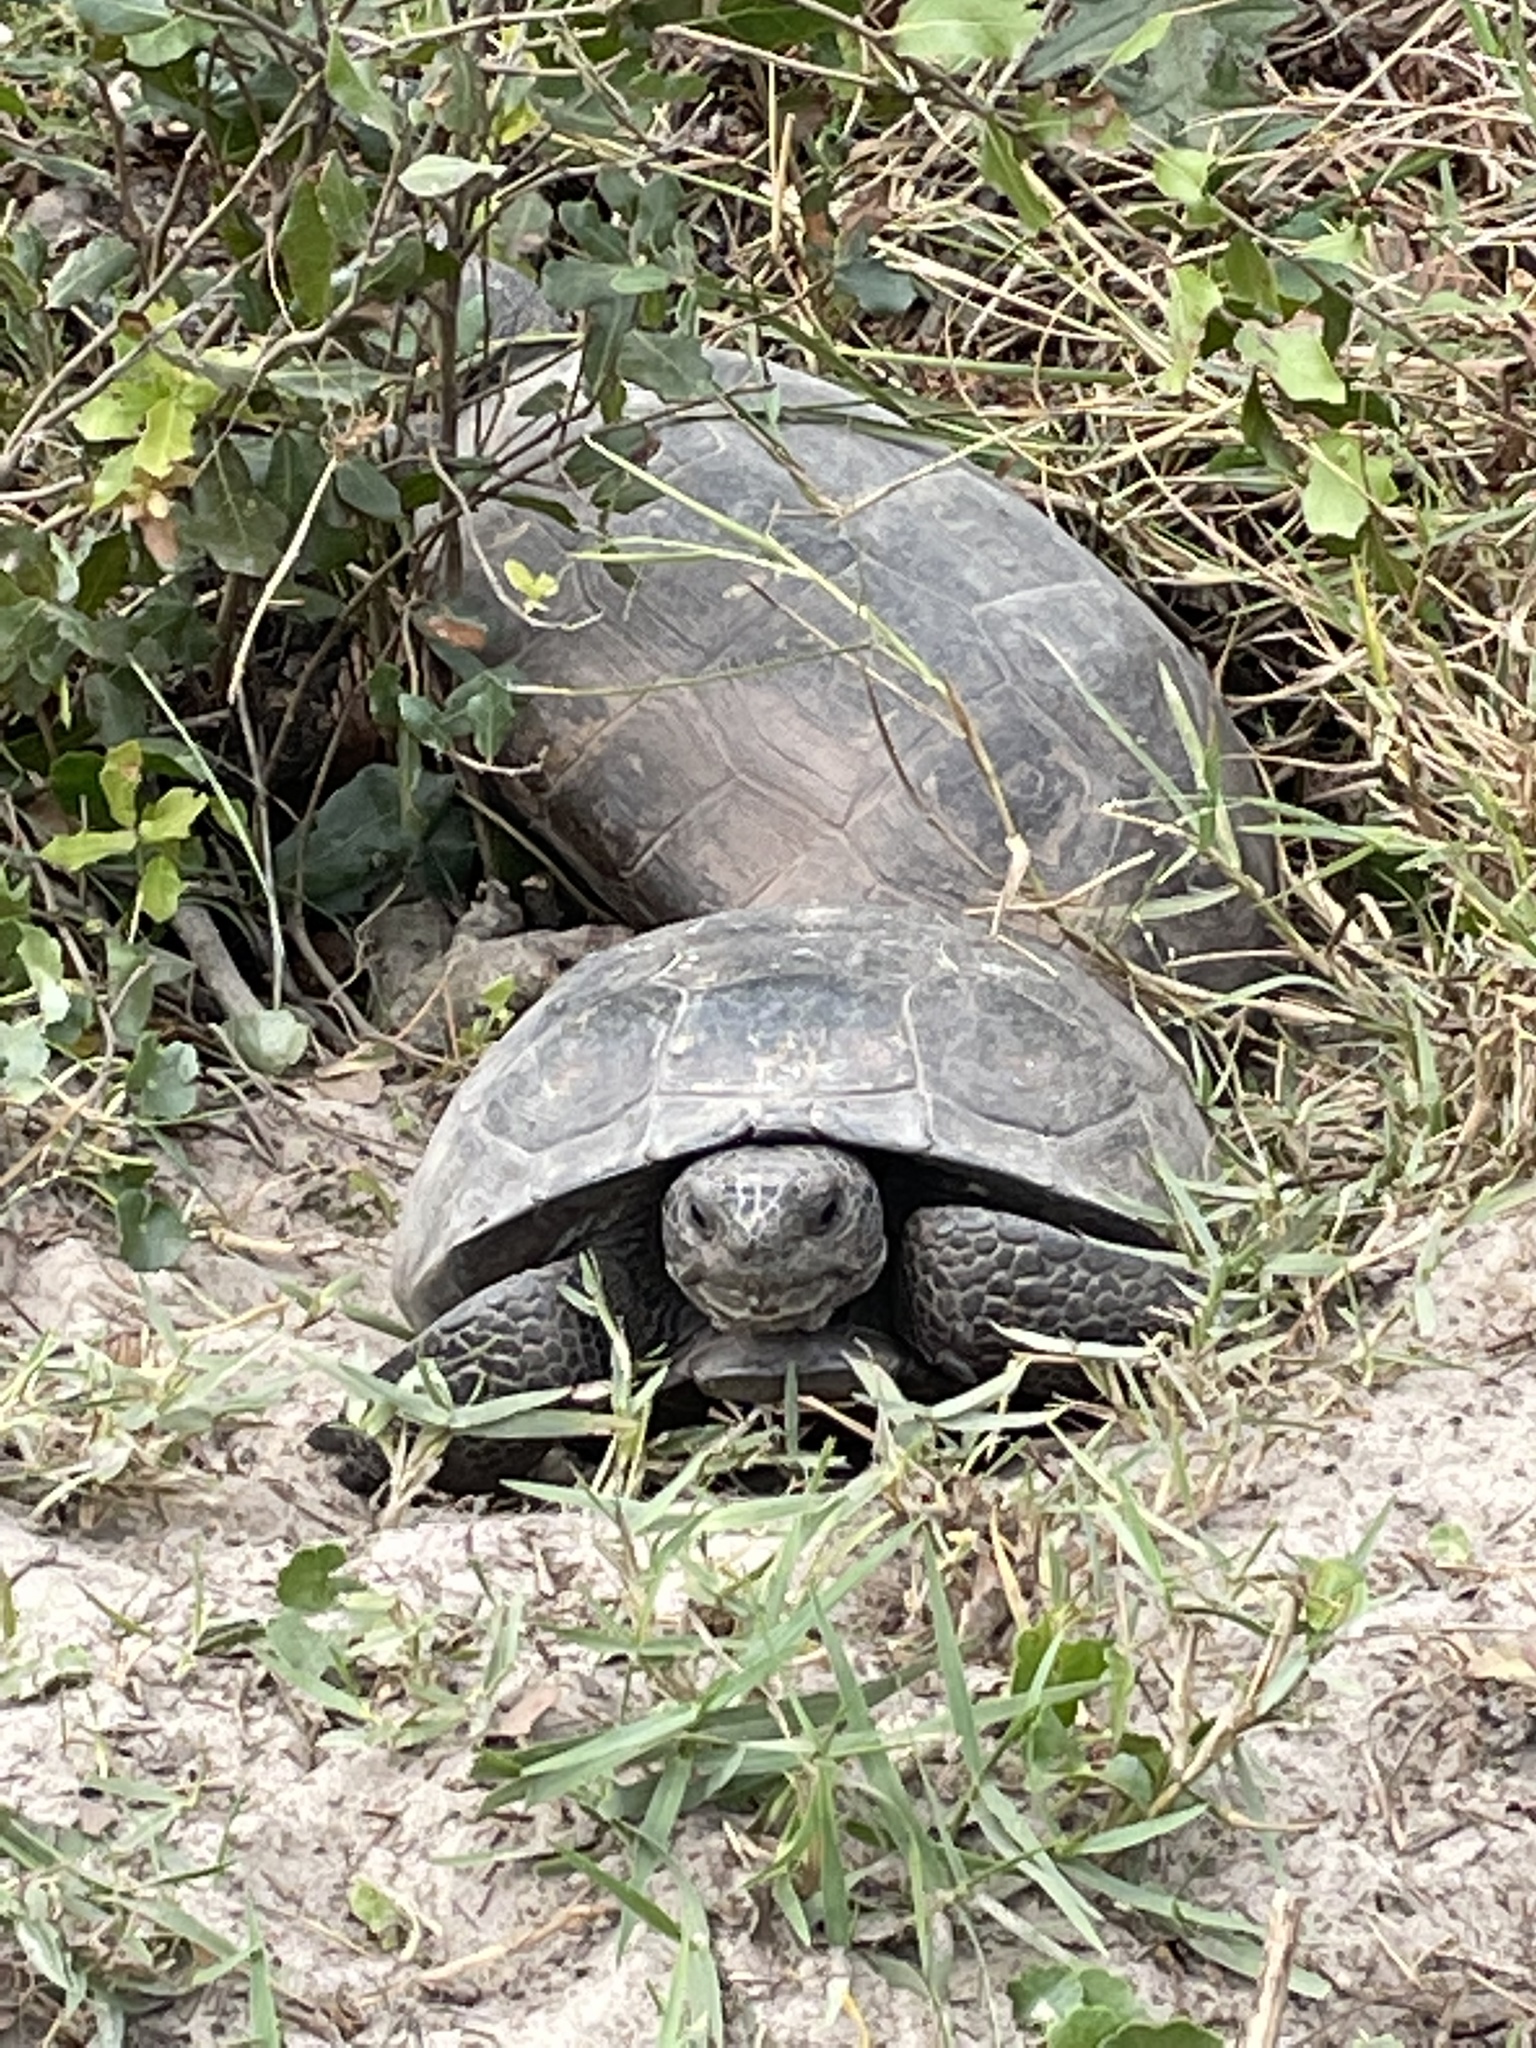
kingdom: Animalia
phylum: Chordata
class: Testudines
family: Testudinidae
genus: Gopherus
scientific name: Gopherus polyphemus
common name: Florida gopher tortoise
